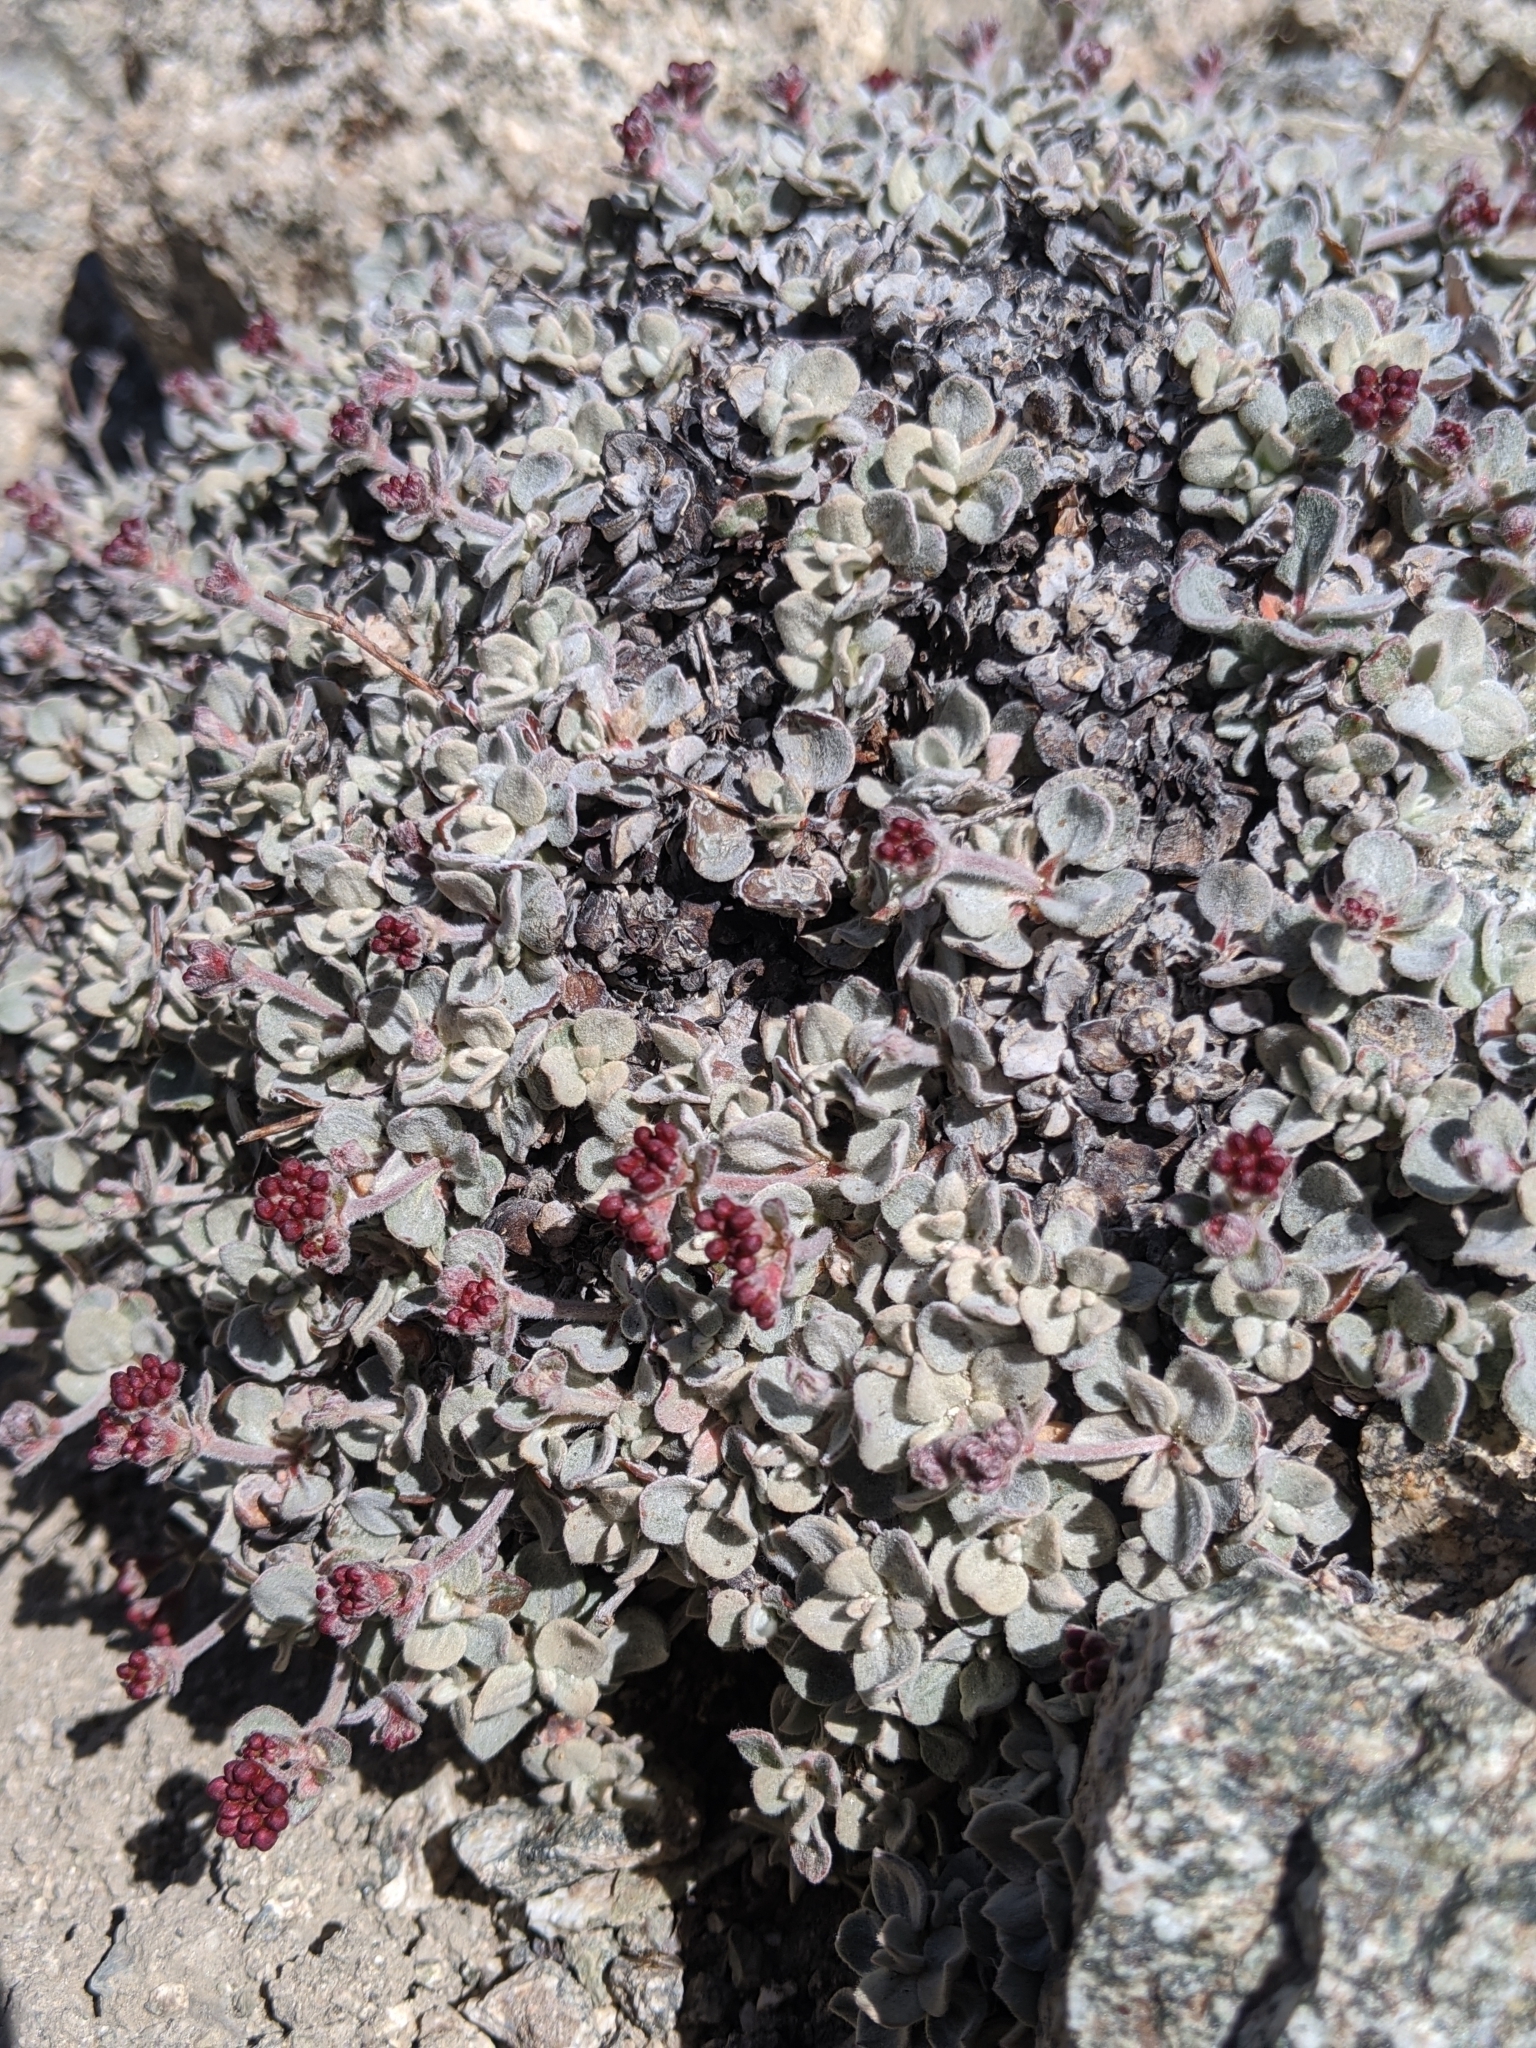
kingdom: Plantae
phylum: Tracheophyta
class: Magnoliopsida
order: Caryophyllales
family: Polygonaceae
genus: Eriogonum
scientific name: Eriogonum umbellatum
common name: Sulfur-buckwheat
